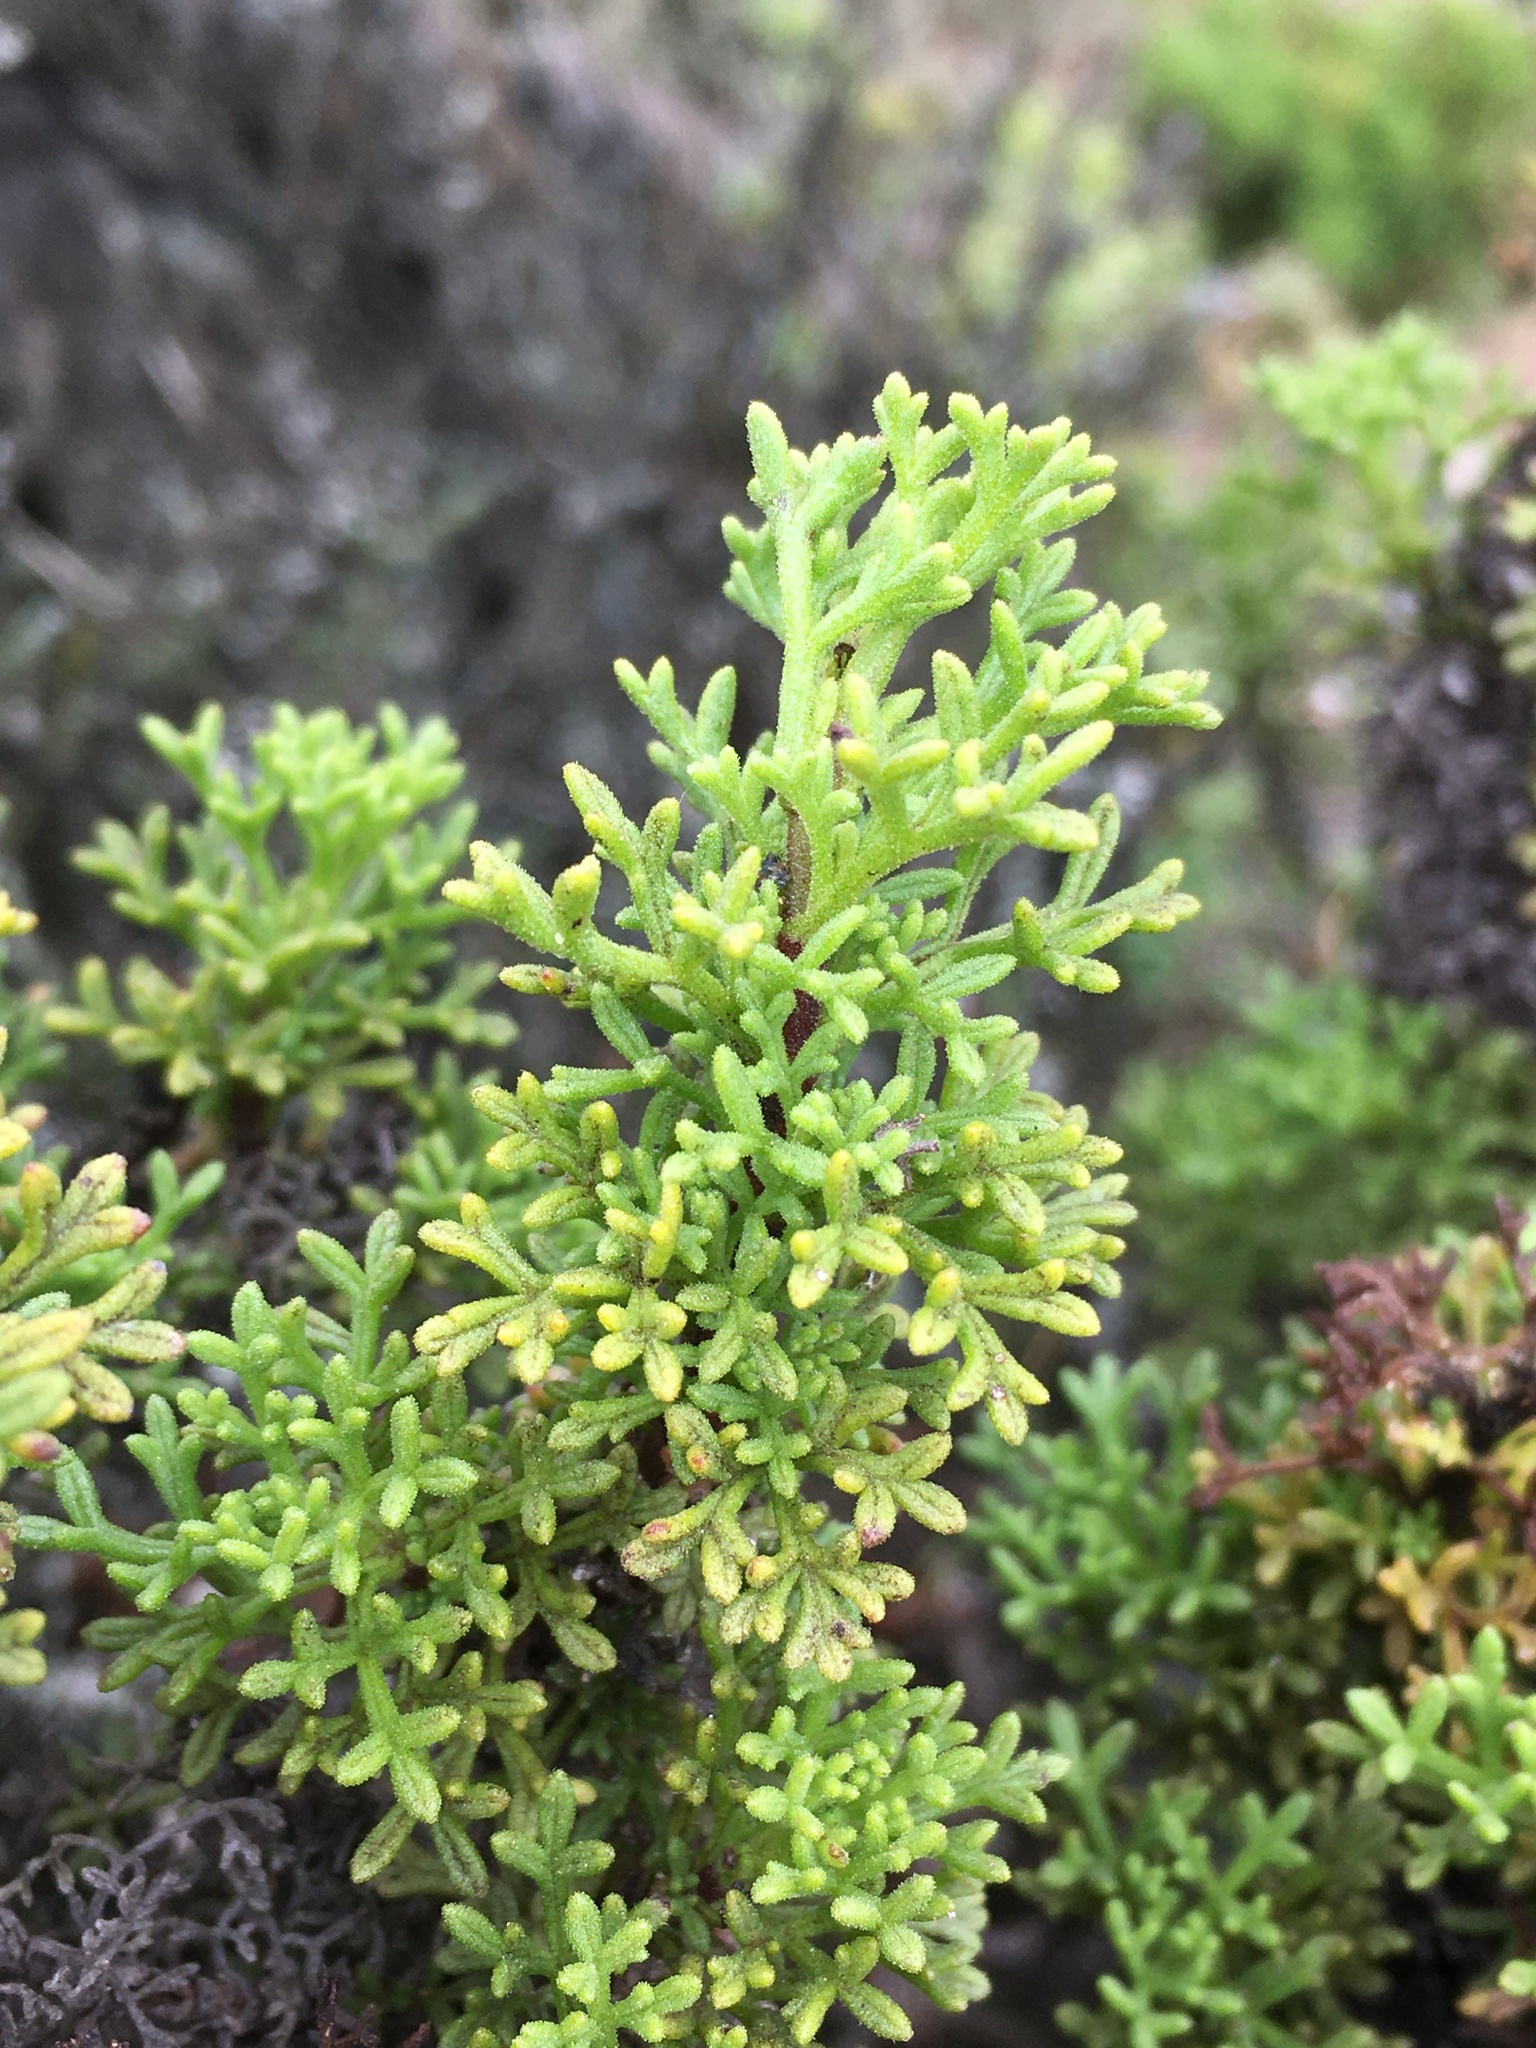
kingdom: Plantae
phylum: Tracheophyta
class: Magnoliopsida
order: Asterales
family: Asteraceae
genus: Bahia
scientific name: Bahia ambrosioides
